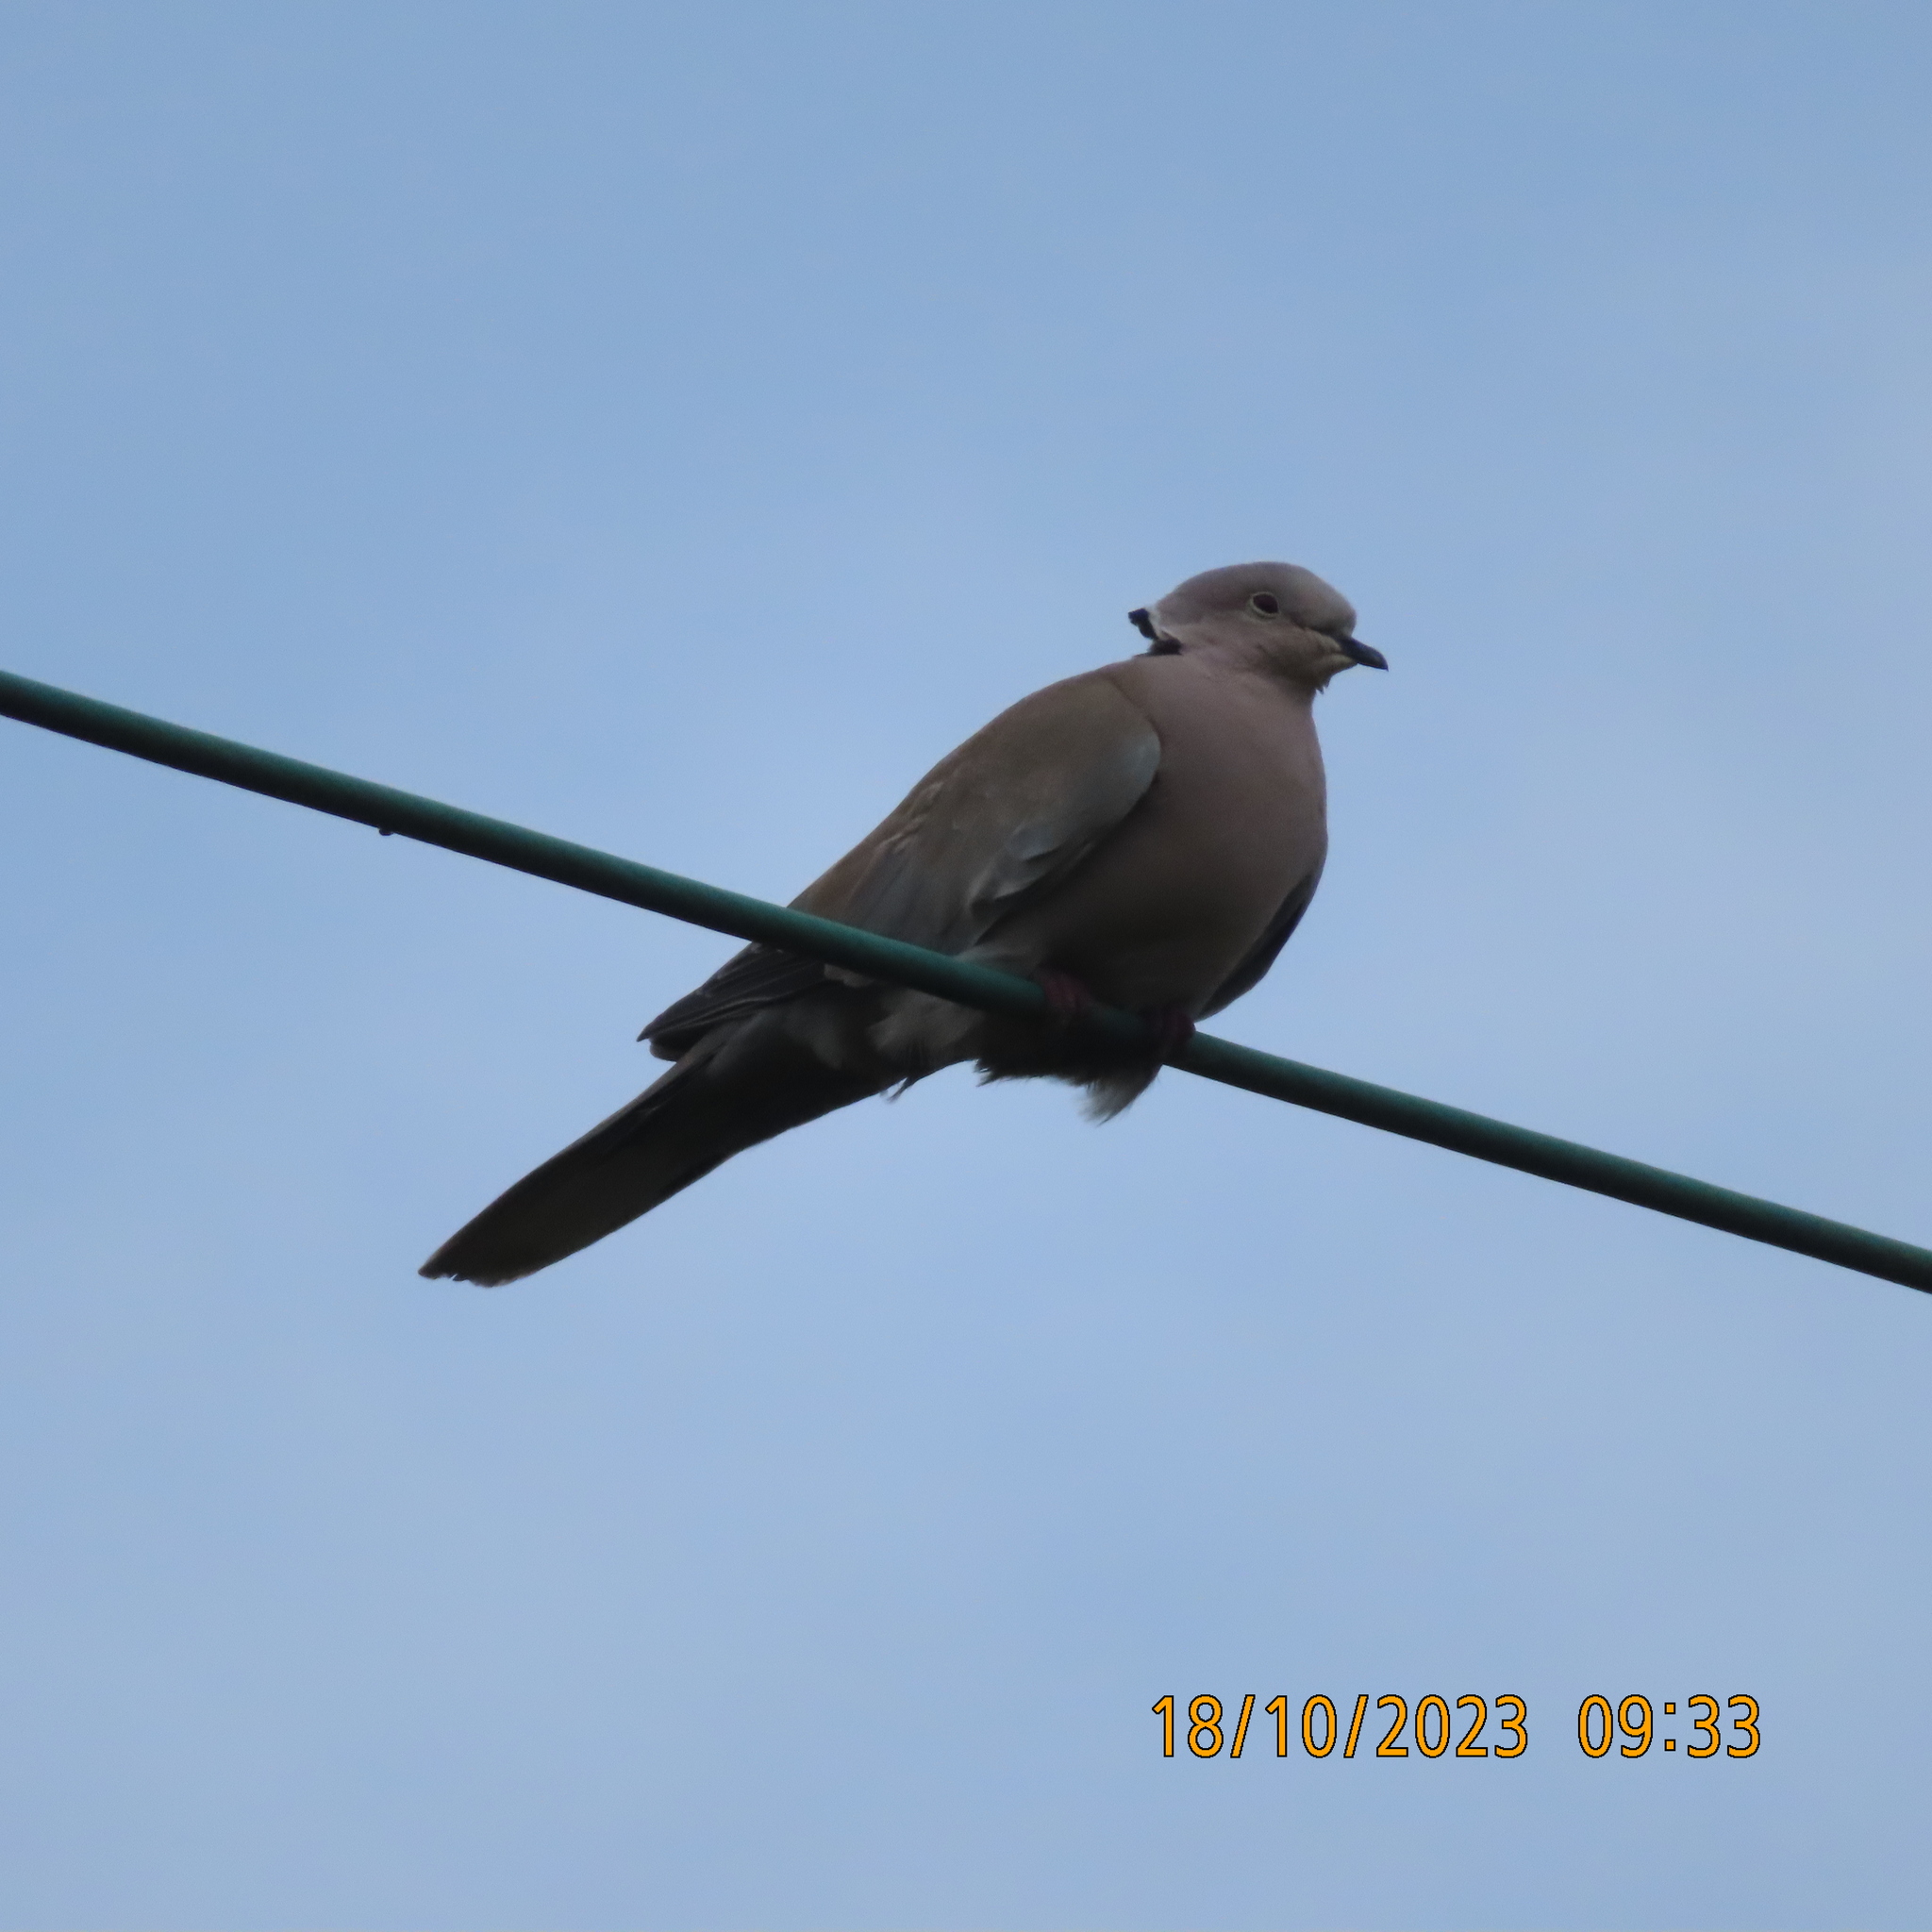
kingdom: Animalia
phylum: Chordata
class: Aves
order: Columbiformes
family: Columbidae
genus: Streptopelia
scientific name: Streptopelia decaocto
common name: Eurasian collared dove
